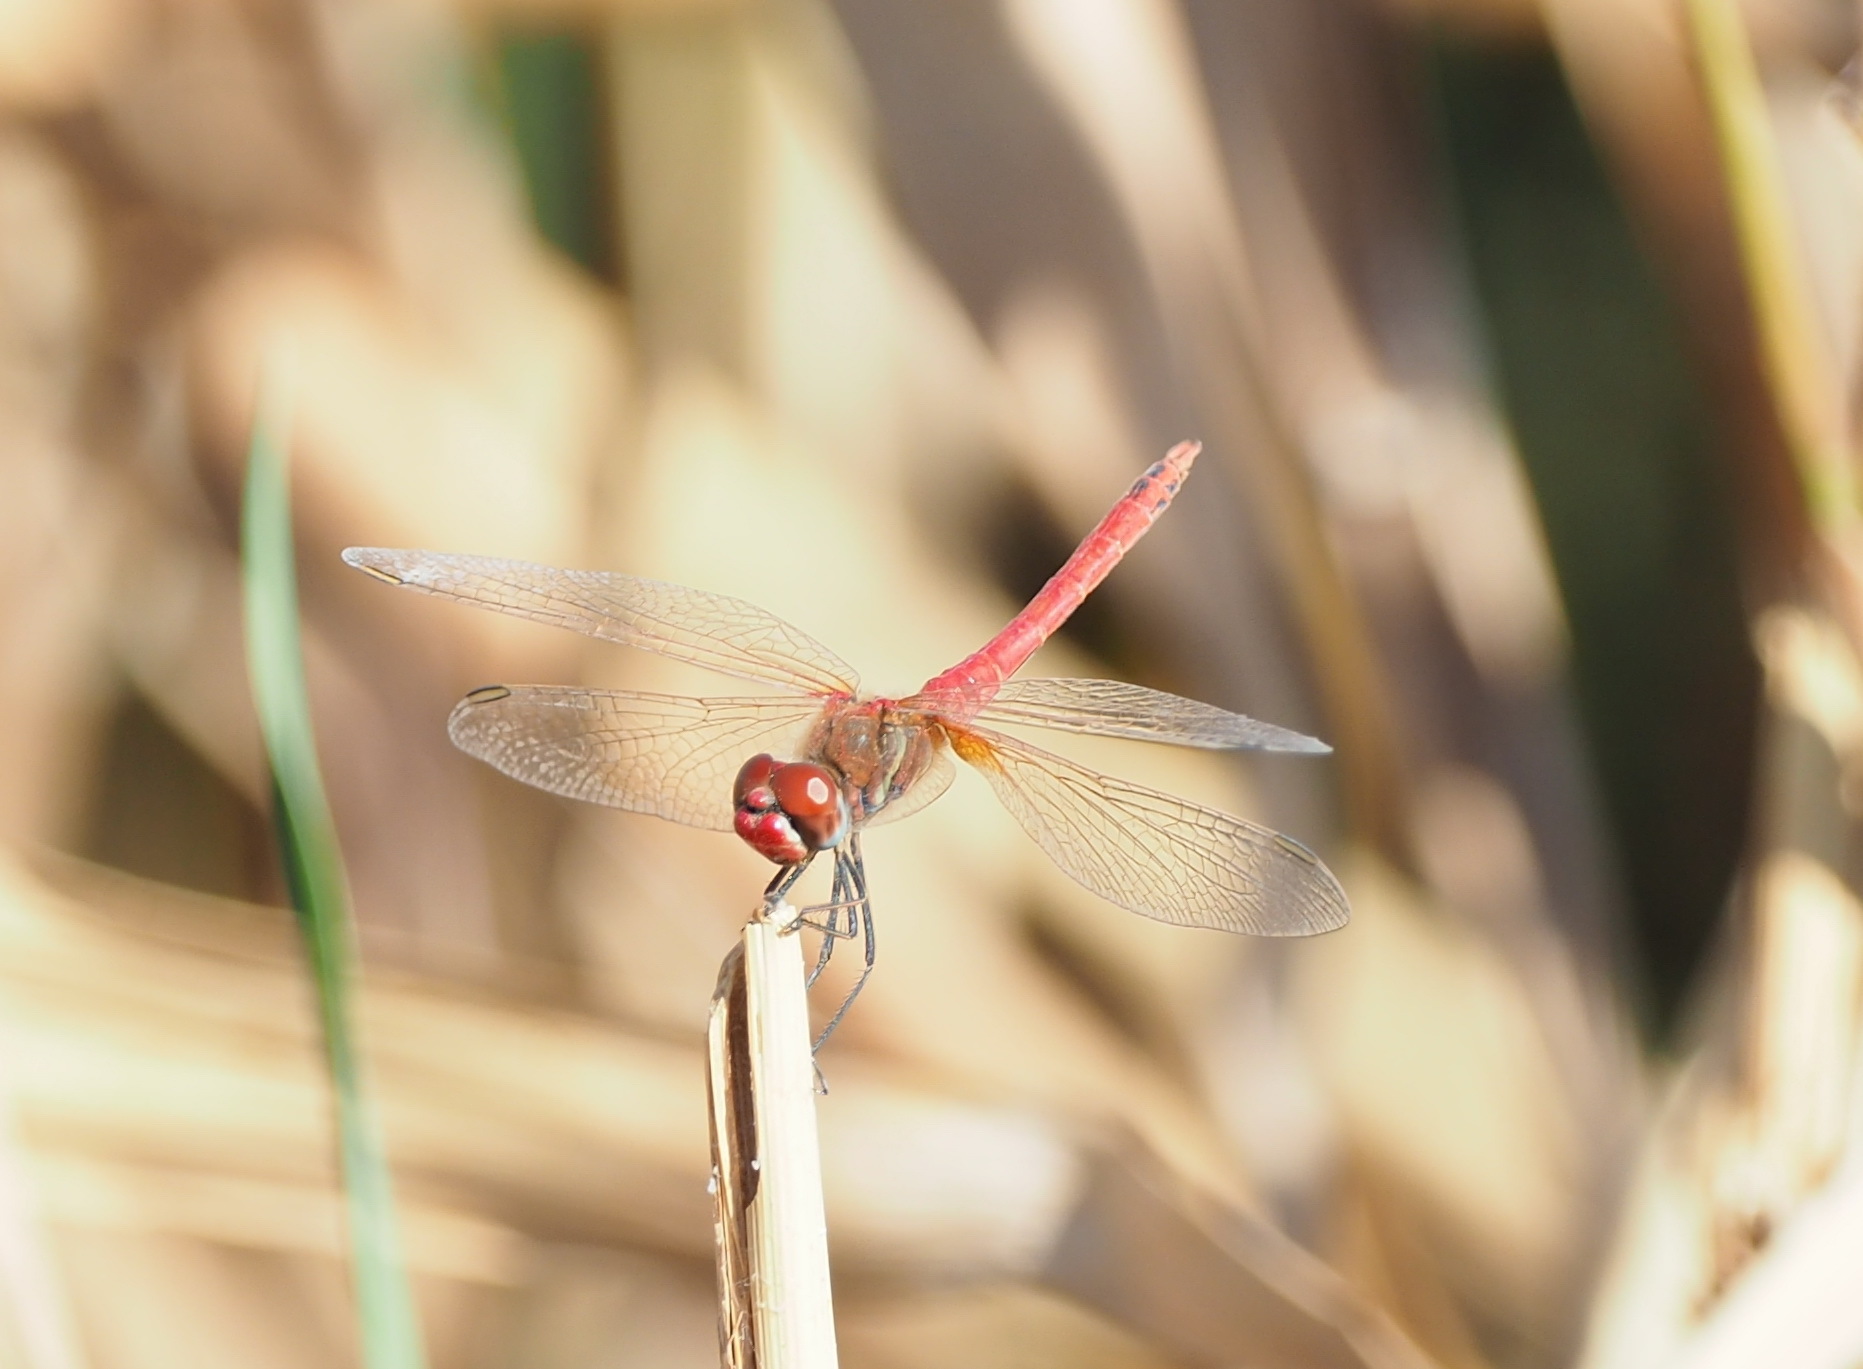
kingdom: Animalia
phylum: Arthropoda
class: Insecta
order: Odonata
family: Libellulidae
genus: Sympetrum
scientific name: Sympetrum fonscolombii
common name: Red-veined darter
